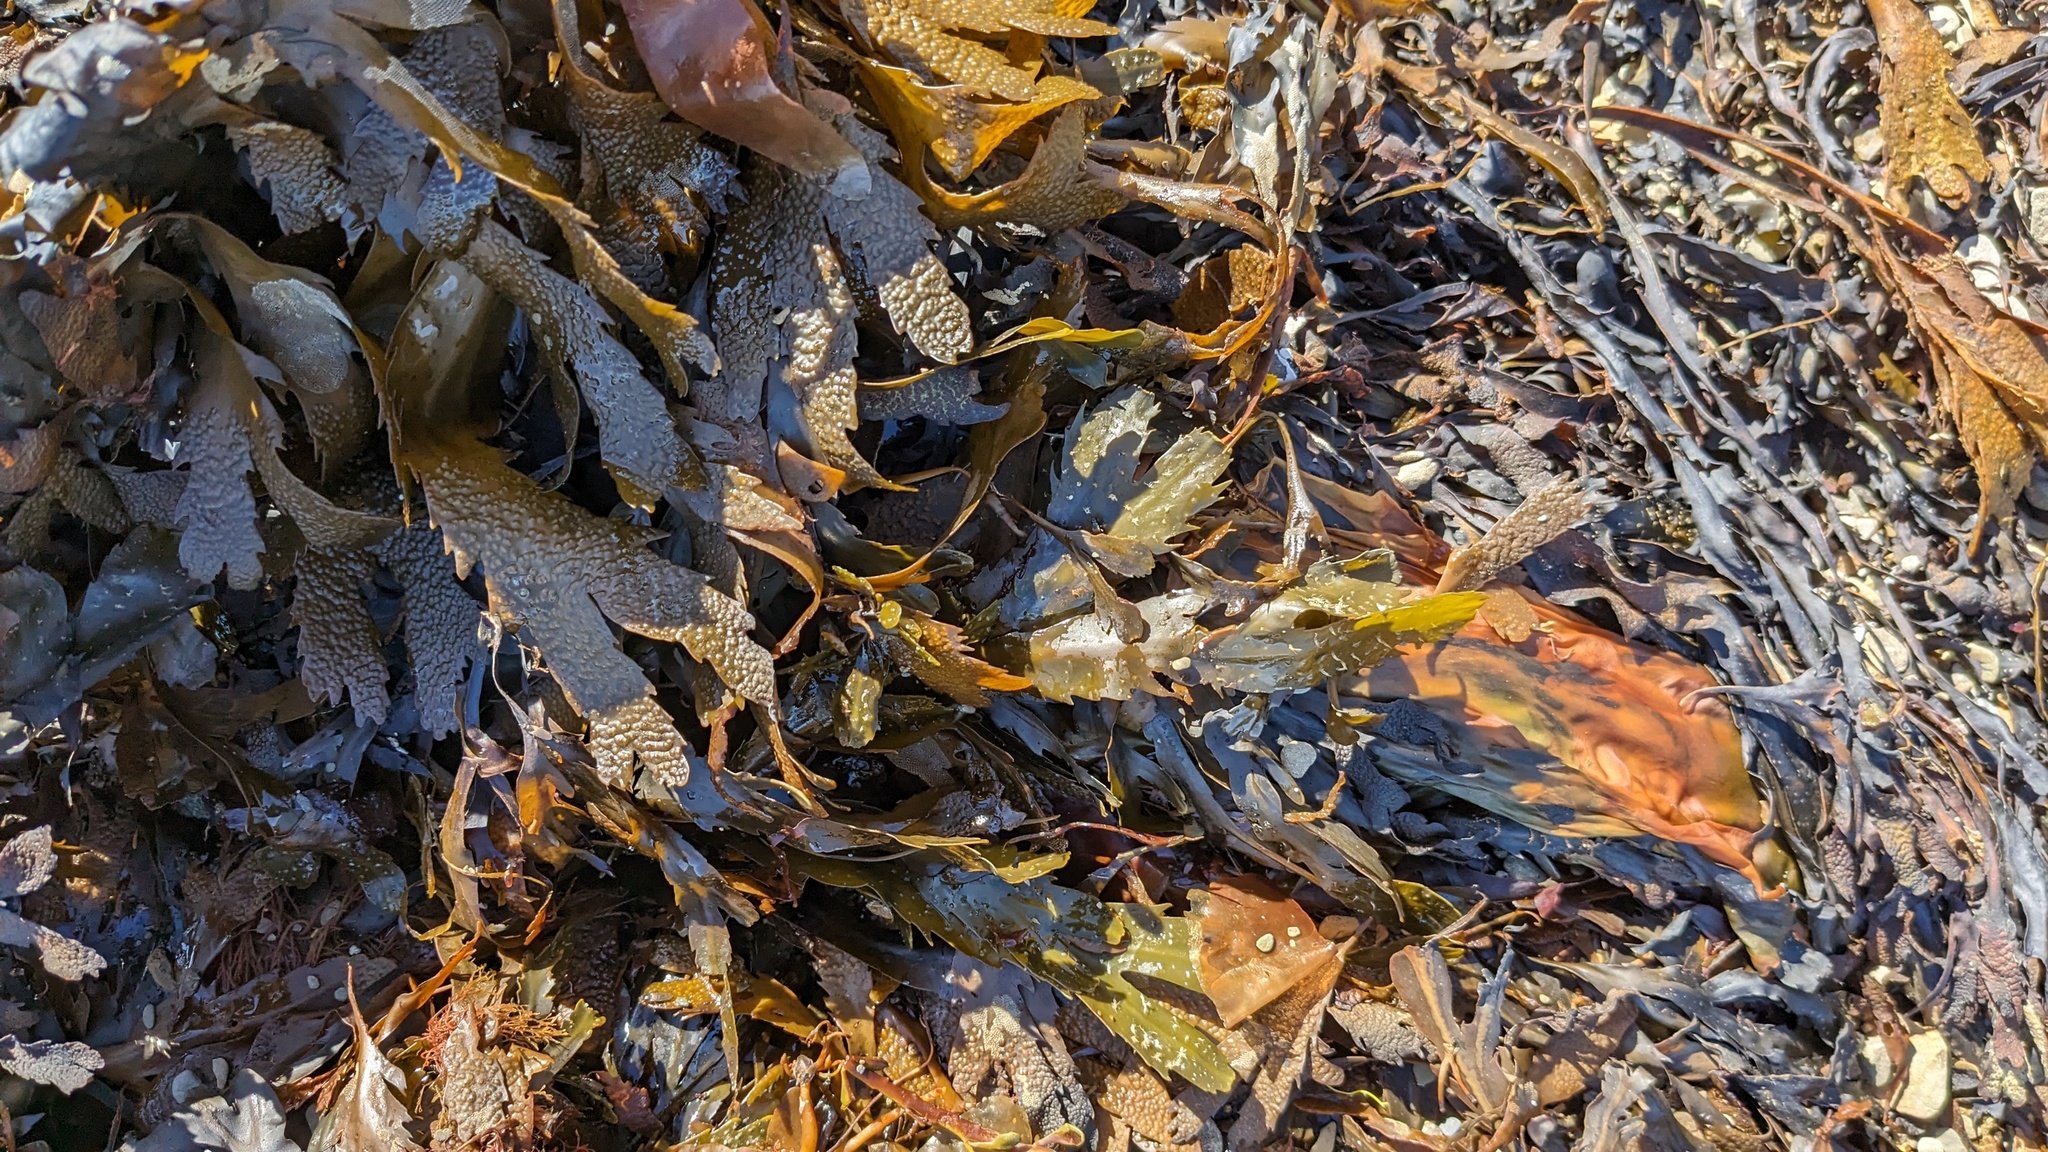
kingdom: Chromista
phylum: Ochrophyta
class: Phaeophyceae
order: Fucales
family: Fucaceae
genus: Fucus
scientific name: Fucus serratus
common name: Toothed wrack
